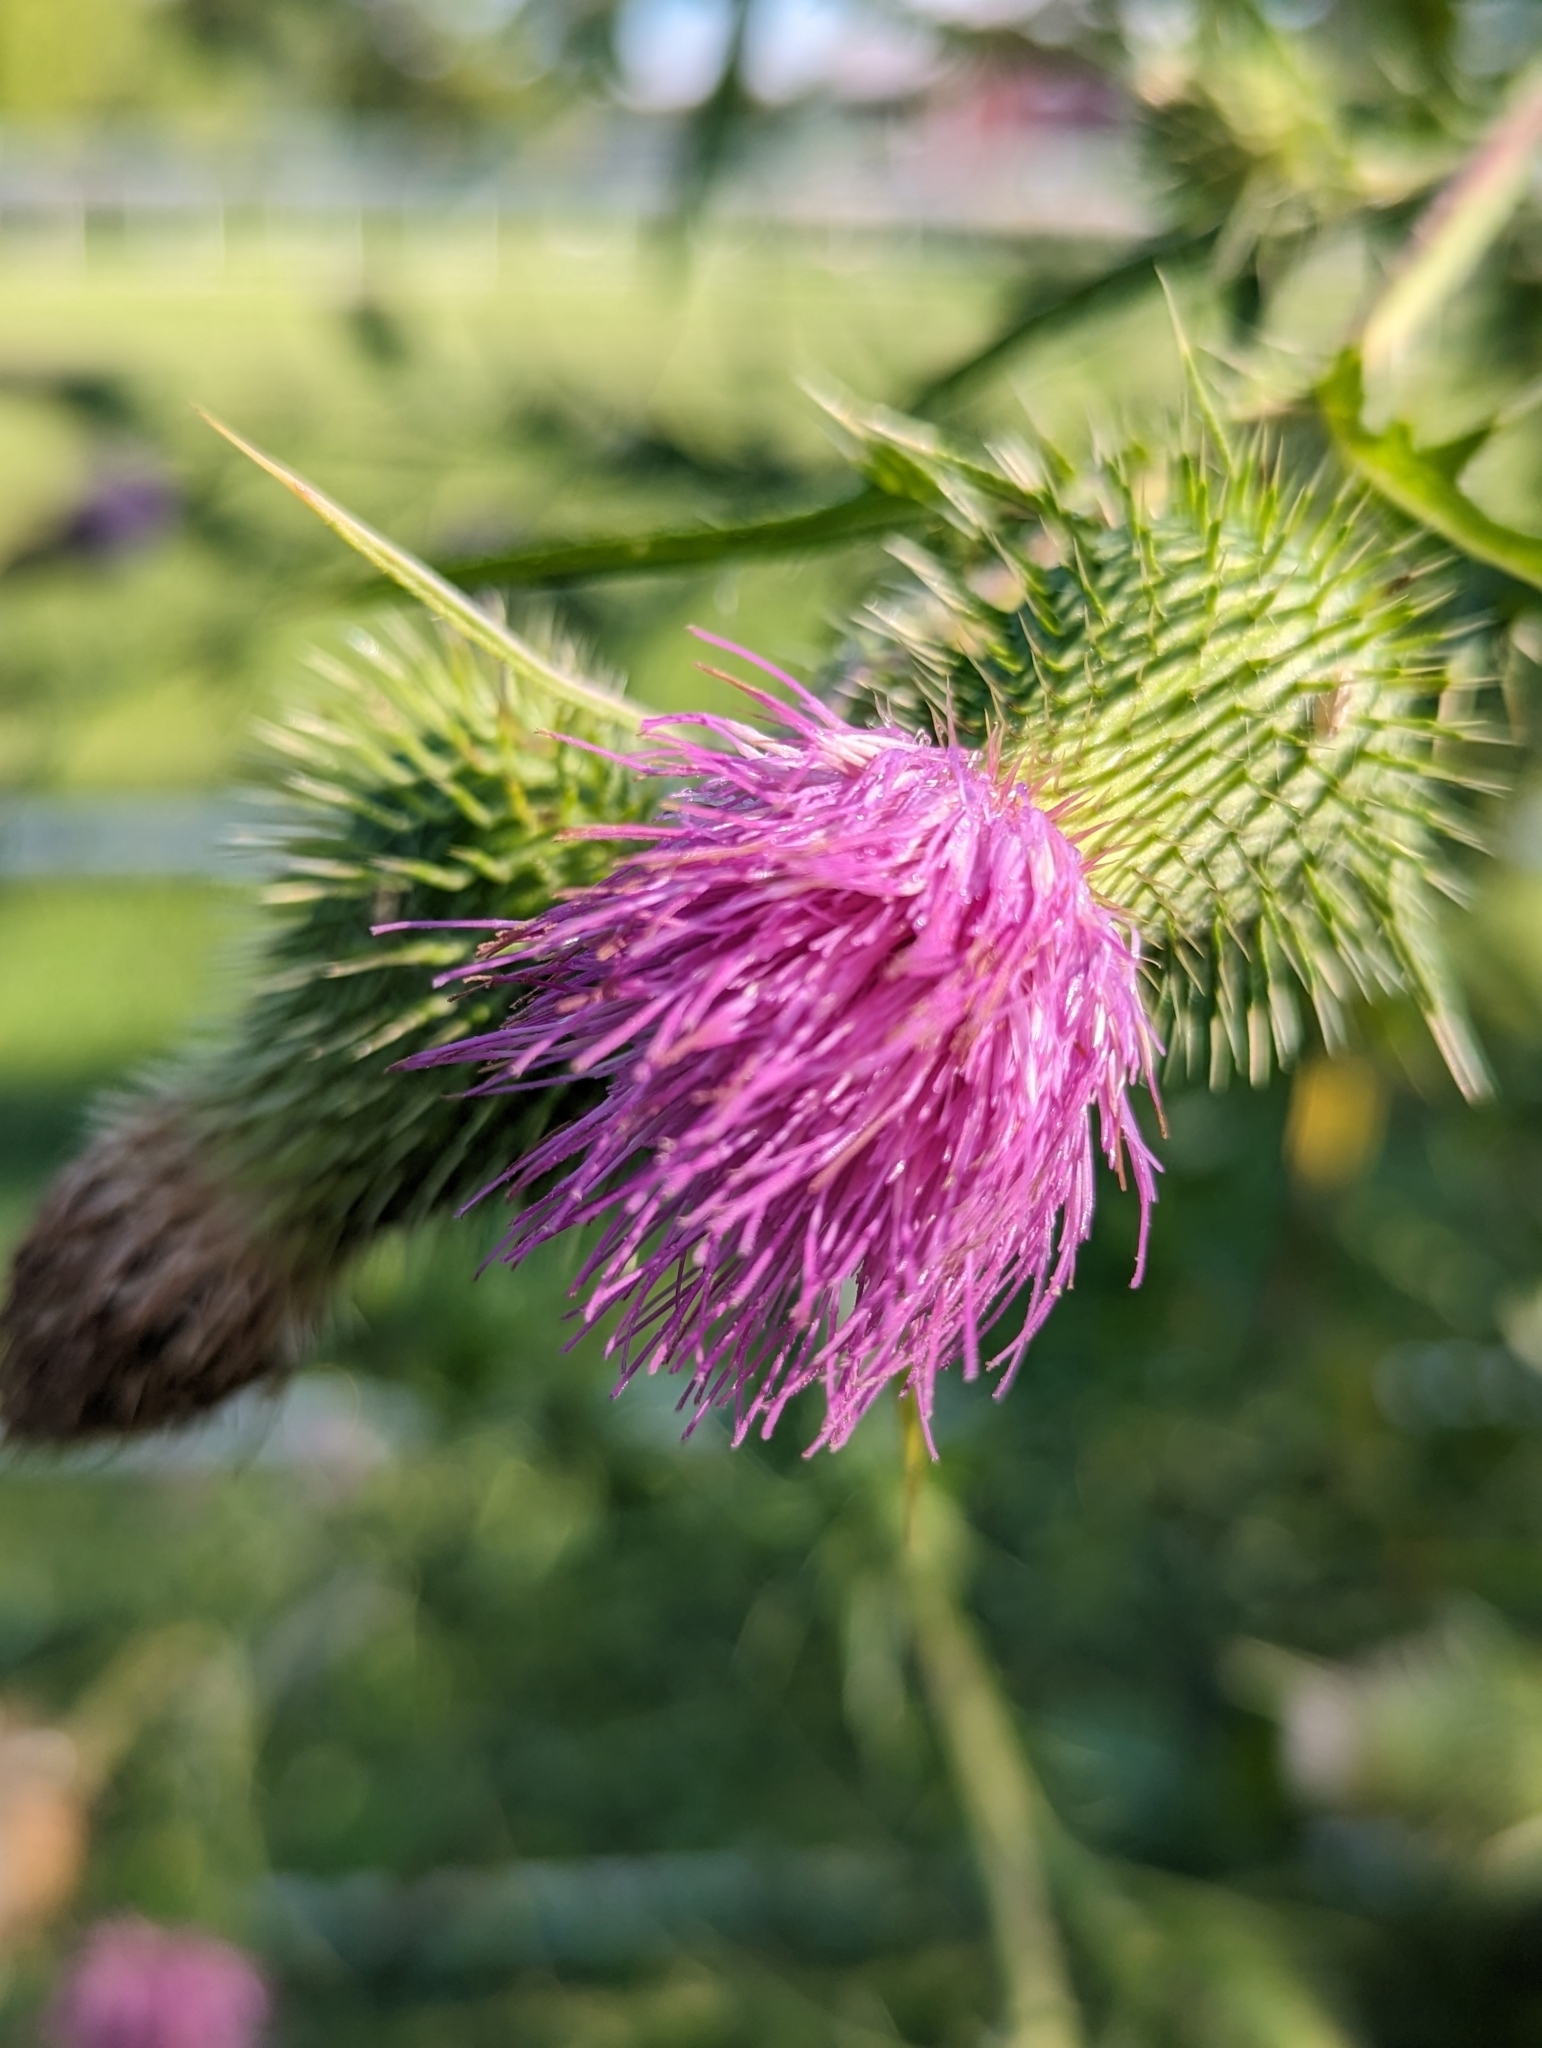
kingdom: Plantae
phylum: Tracheophyta
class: Magnoliopsida
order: Asterales
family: Asteraceae
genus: Cirsium
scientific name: Cirsium vulgare
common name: Bull thistle
